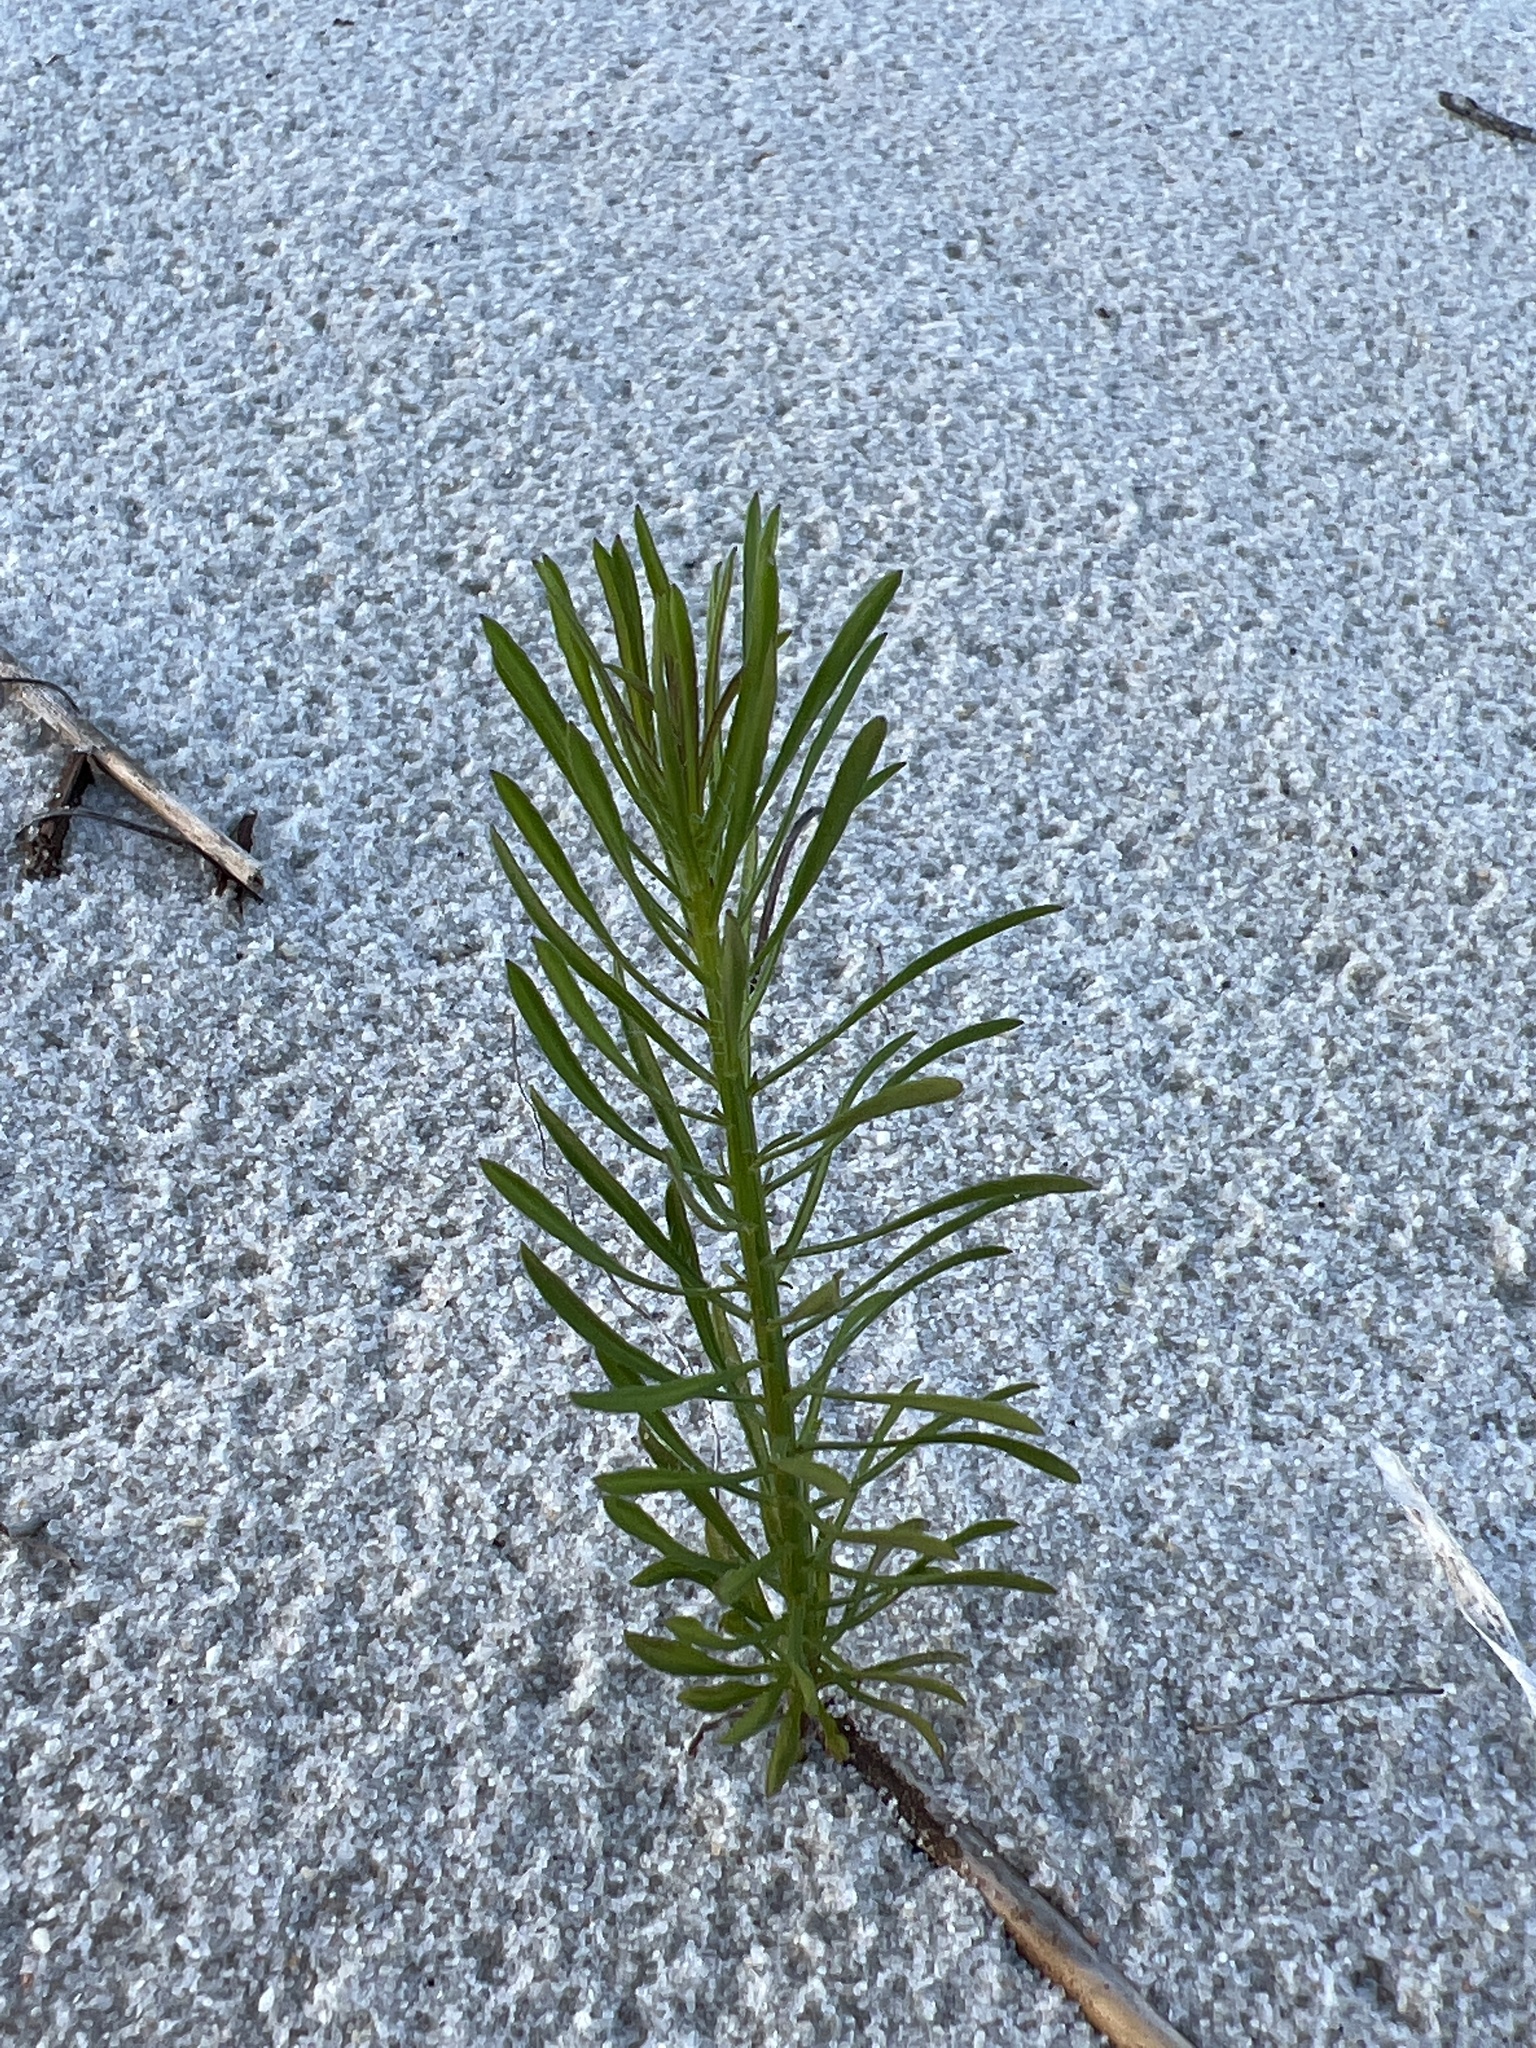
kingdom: Plantae
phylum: Tracheophyta
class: Magnoliopsida
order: Asterales
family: Asteraceae
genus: Erigeron
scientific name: Erigeron canadensis
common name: Canadian fleabane
